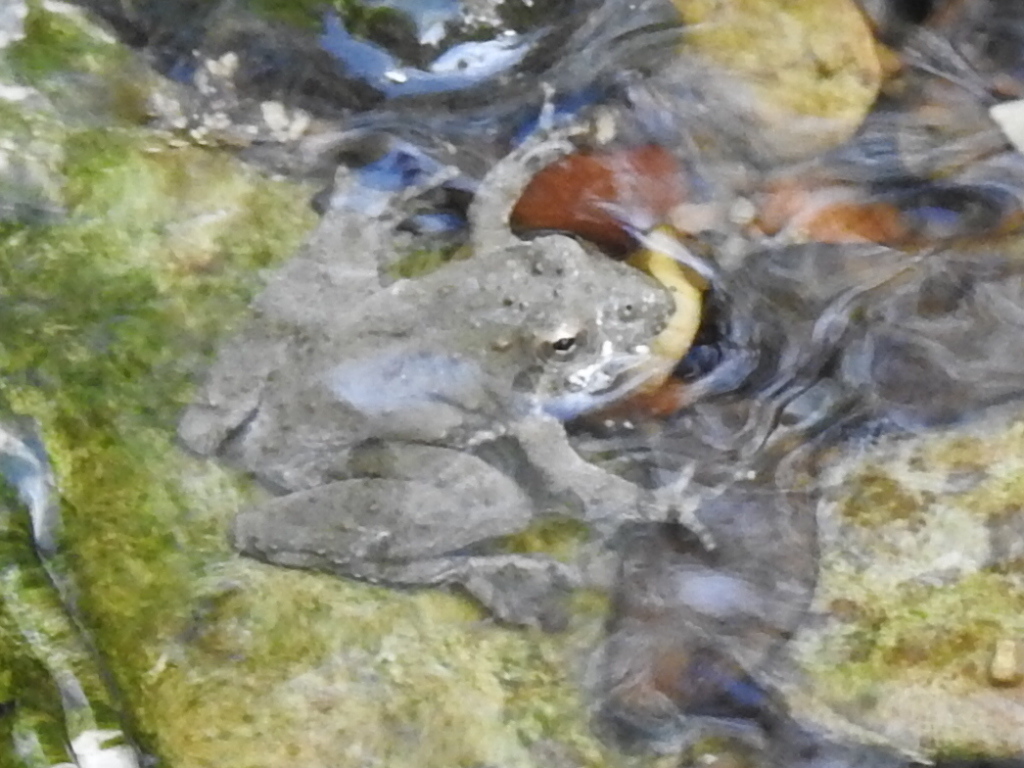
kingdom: Animalia
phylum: Chordata
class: Amphibia
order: Anura
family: Hylidae
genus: Acris
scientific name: Acris blanchardi
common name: Blanchard's cricket frog
